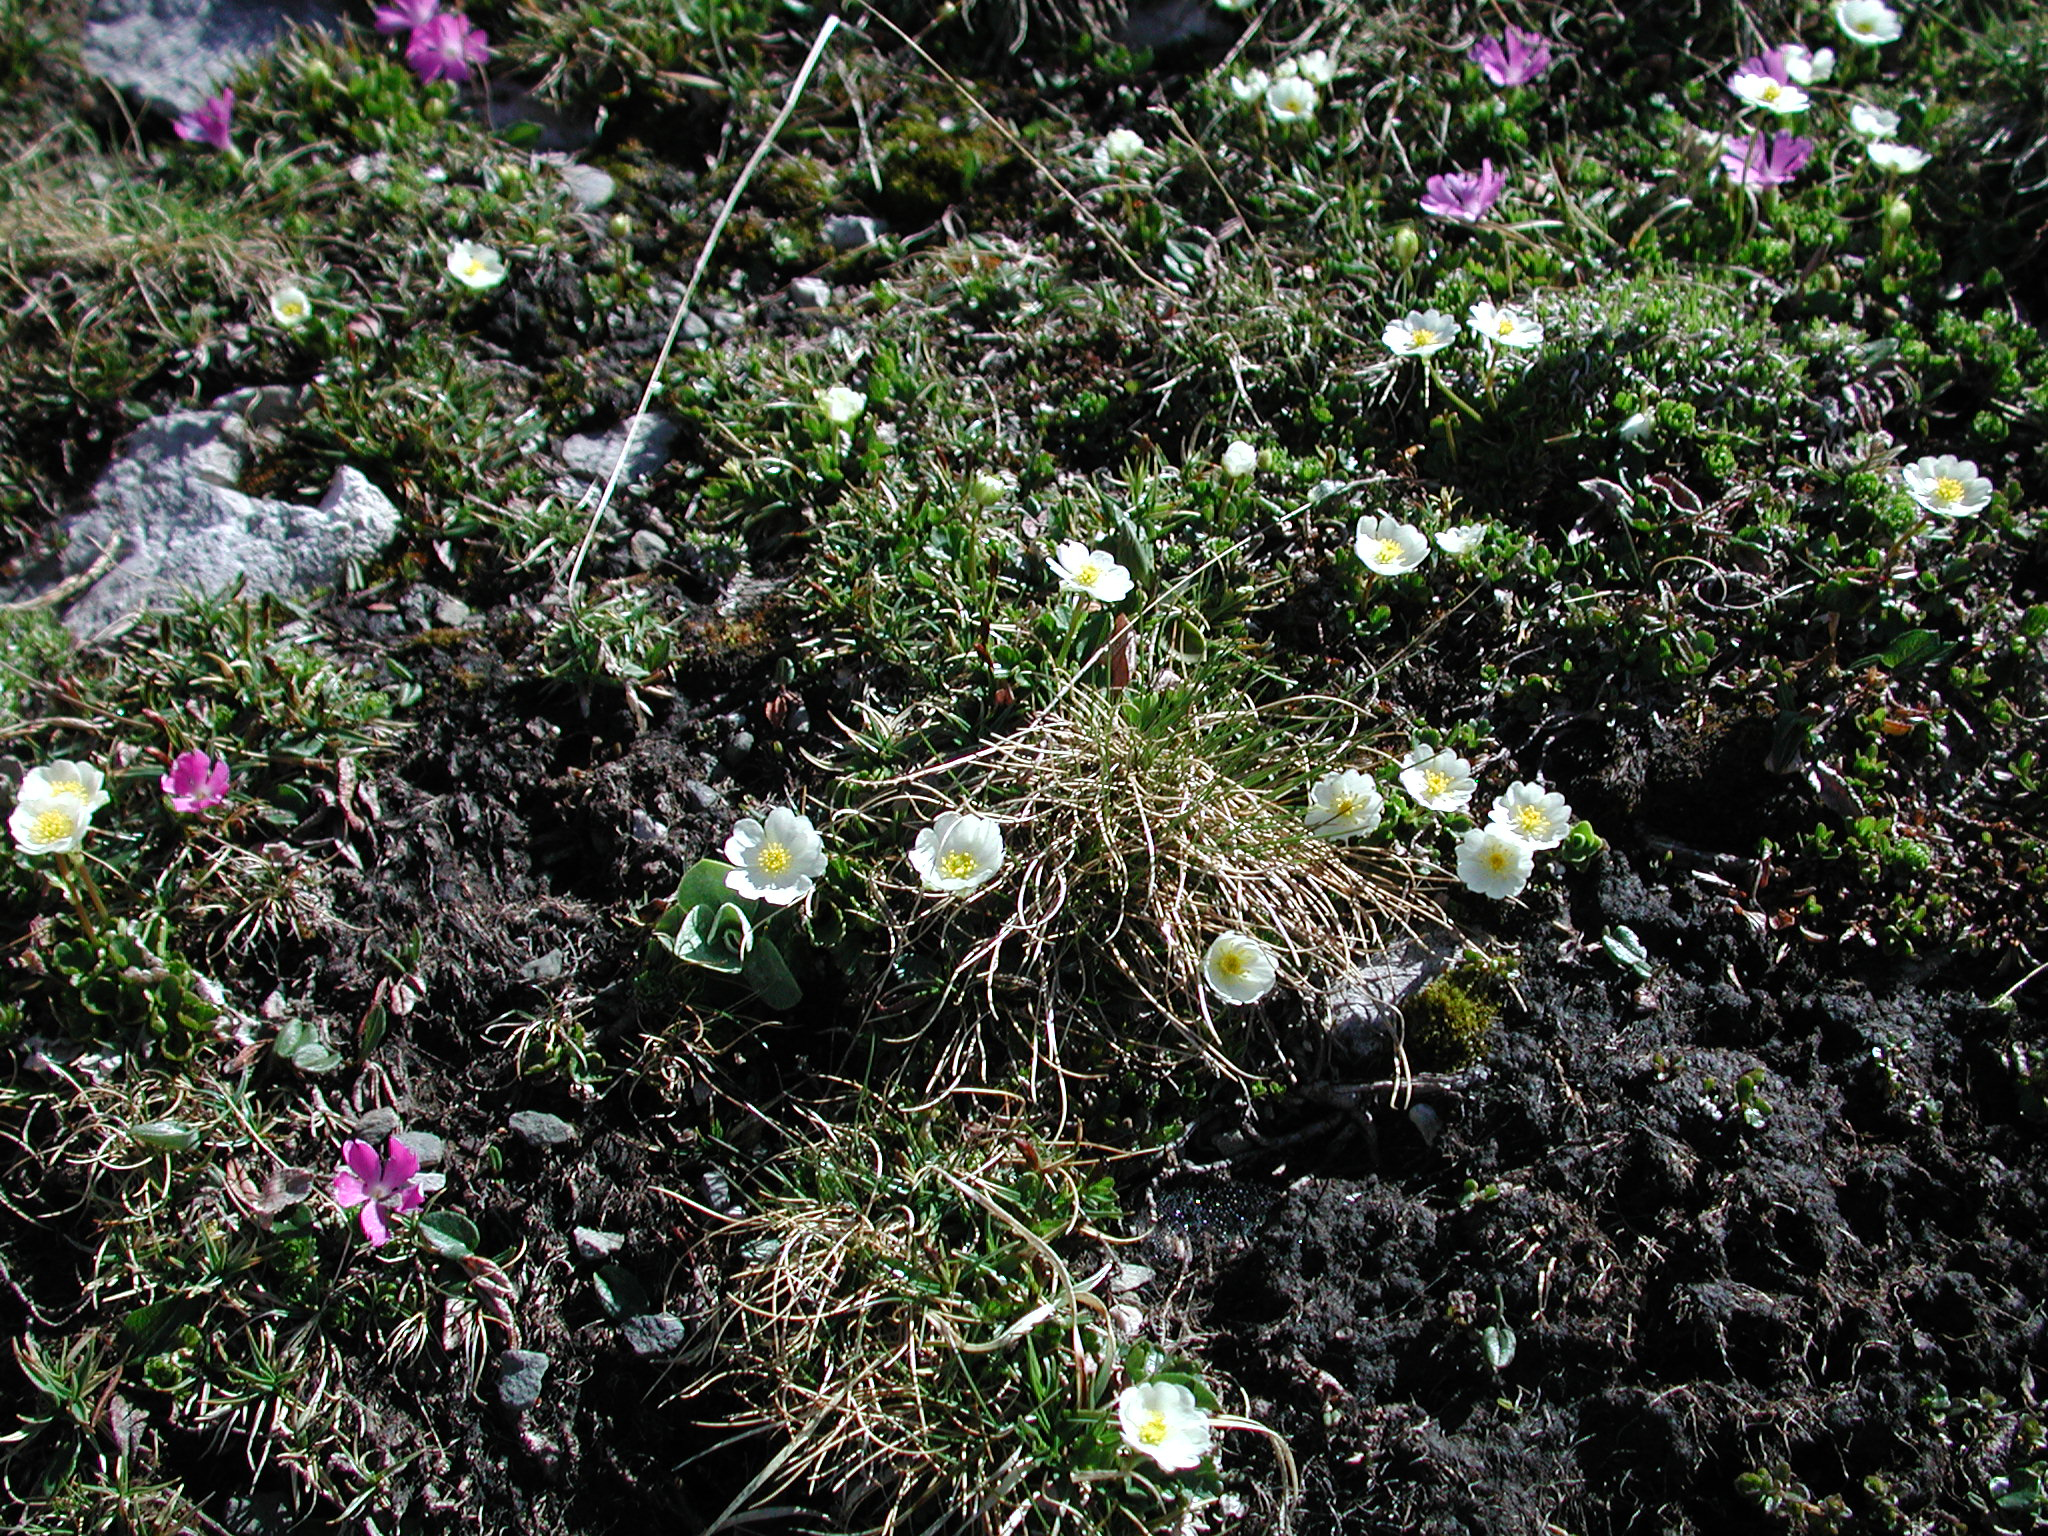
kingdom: Plantae
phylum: Tracheophyta
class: Magnoliopsida
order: Rosales
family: Rosaceae
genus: Dryas
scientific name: Dryas octopetala
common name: Eight-petal mountain-avens
